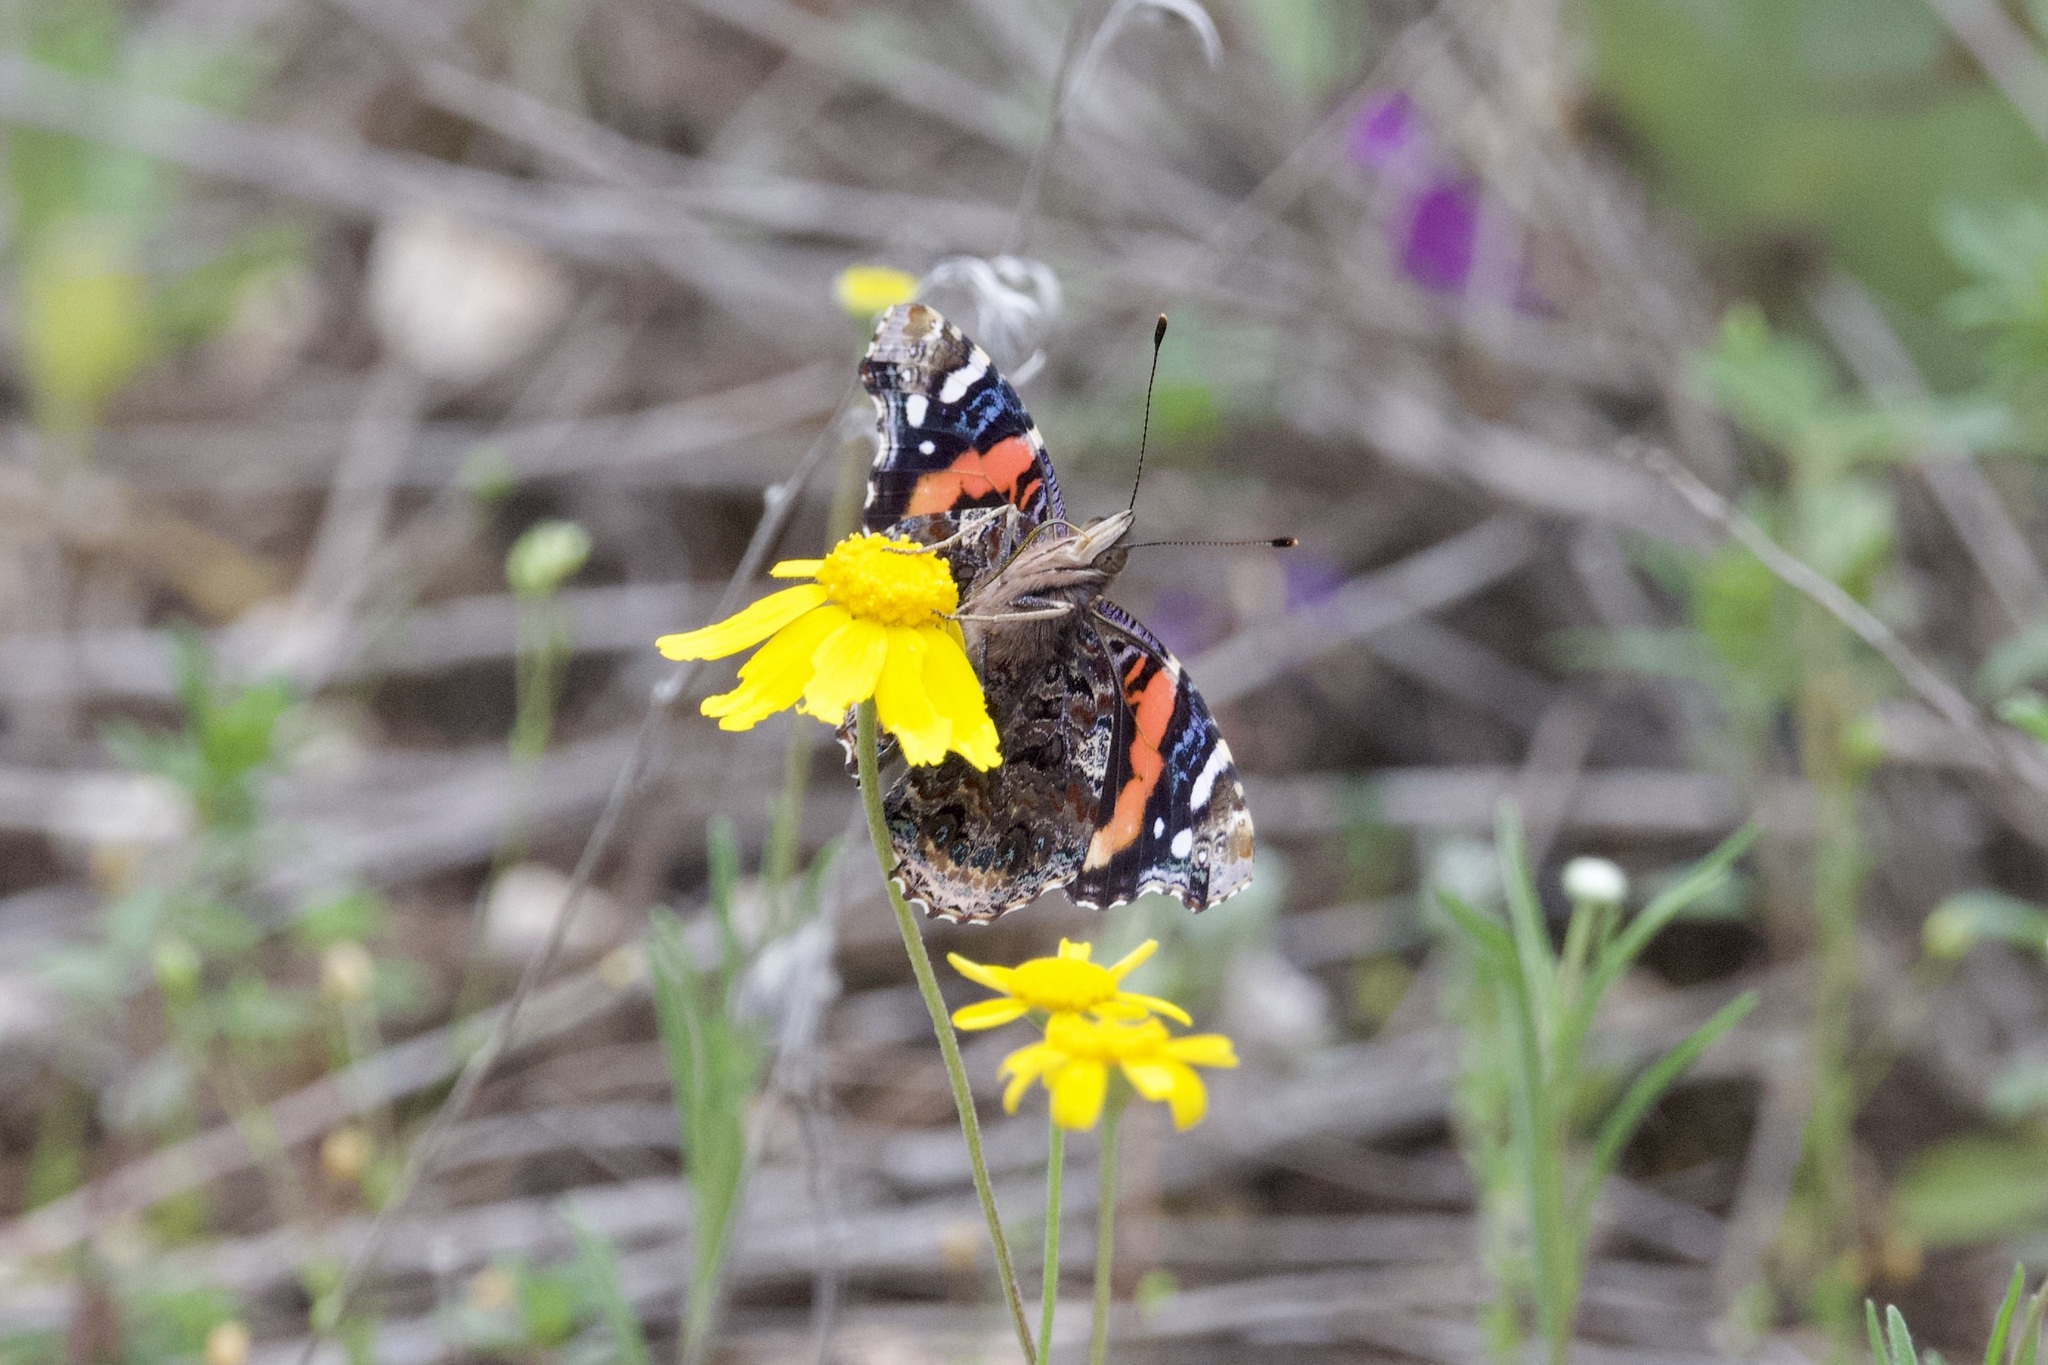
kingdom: Animalia
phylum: Arthropoda
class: Insecta
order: Lepidoptera
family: Nymphalidae
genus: Vanessa
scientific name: Vanessa atalanta
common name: Red admiral
